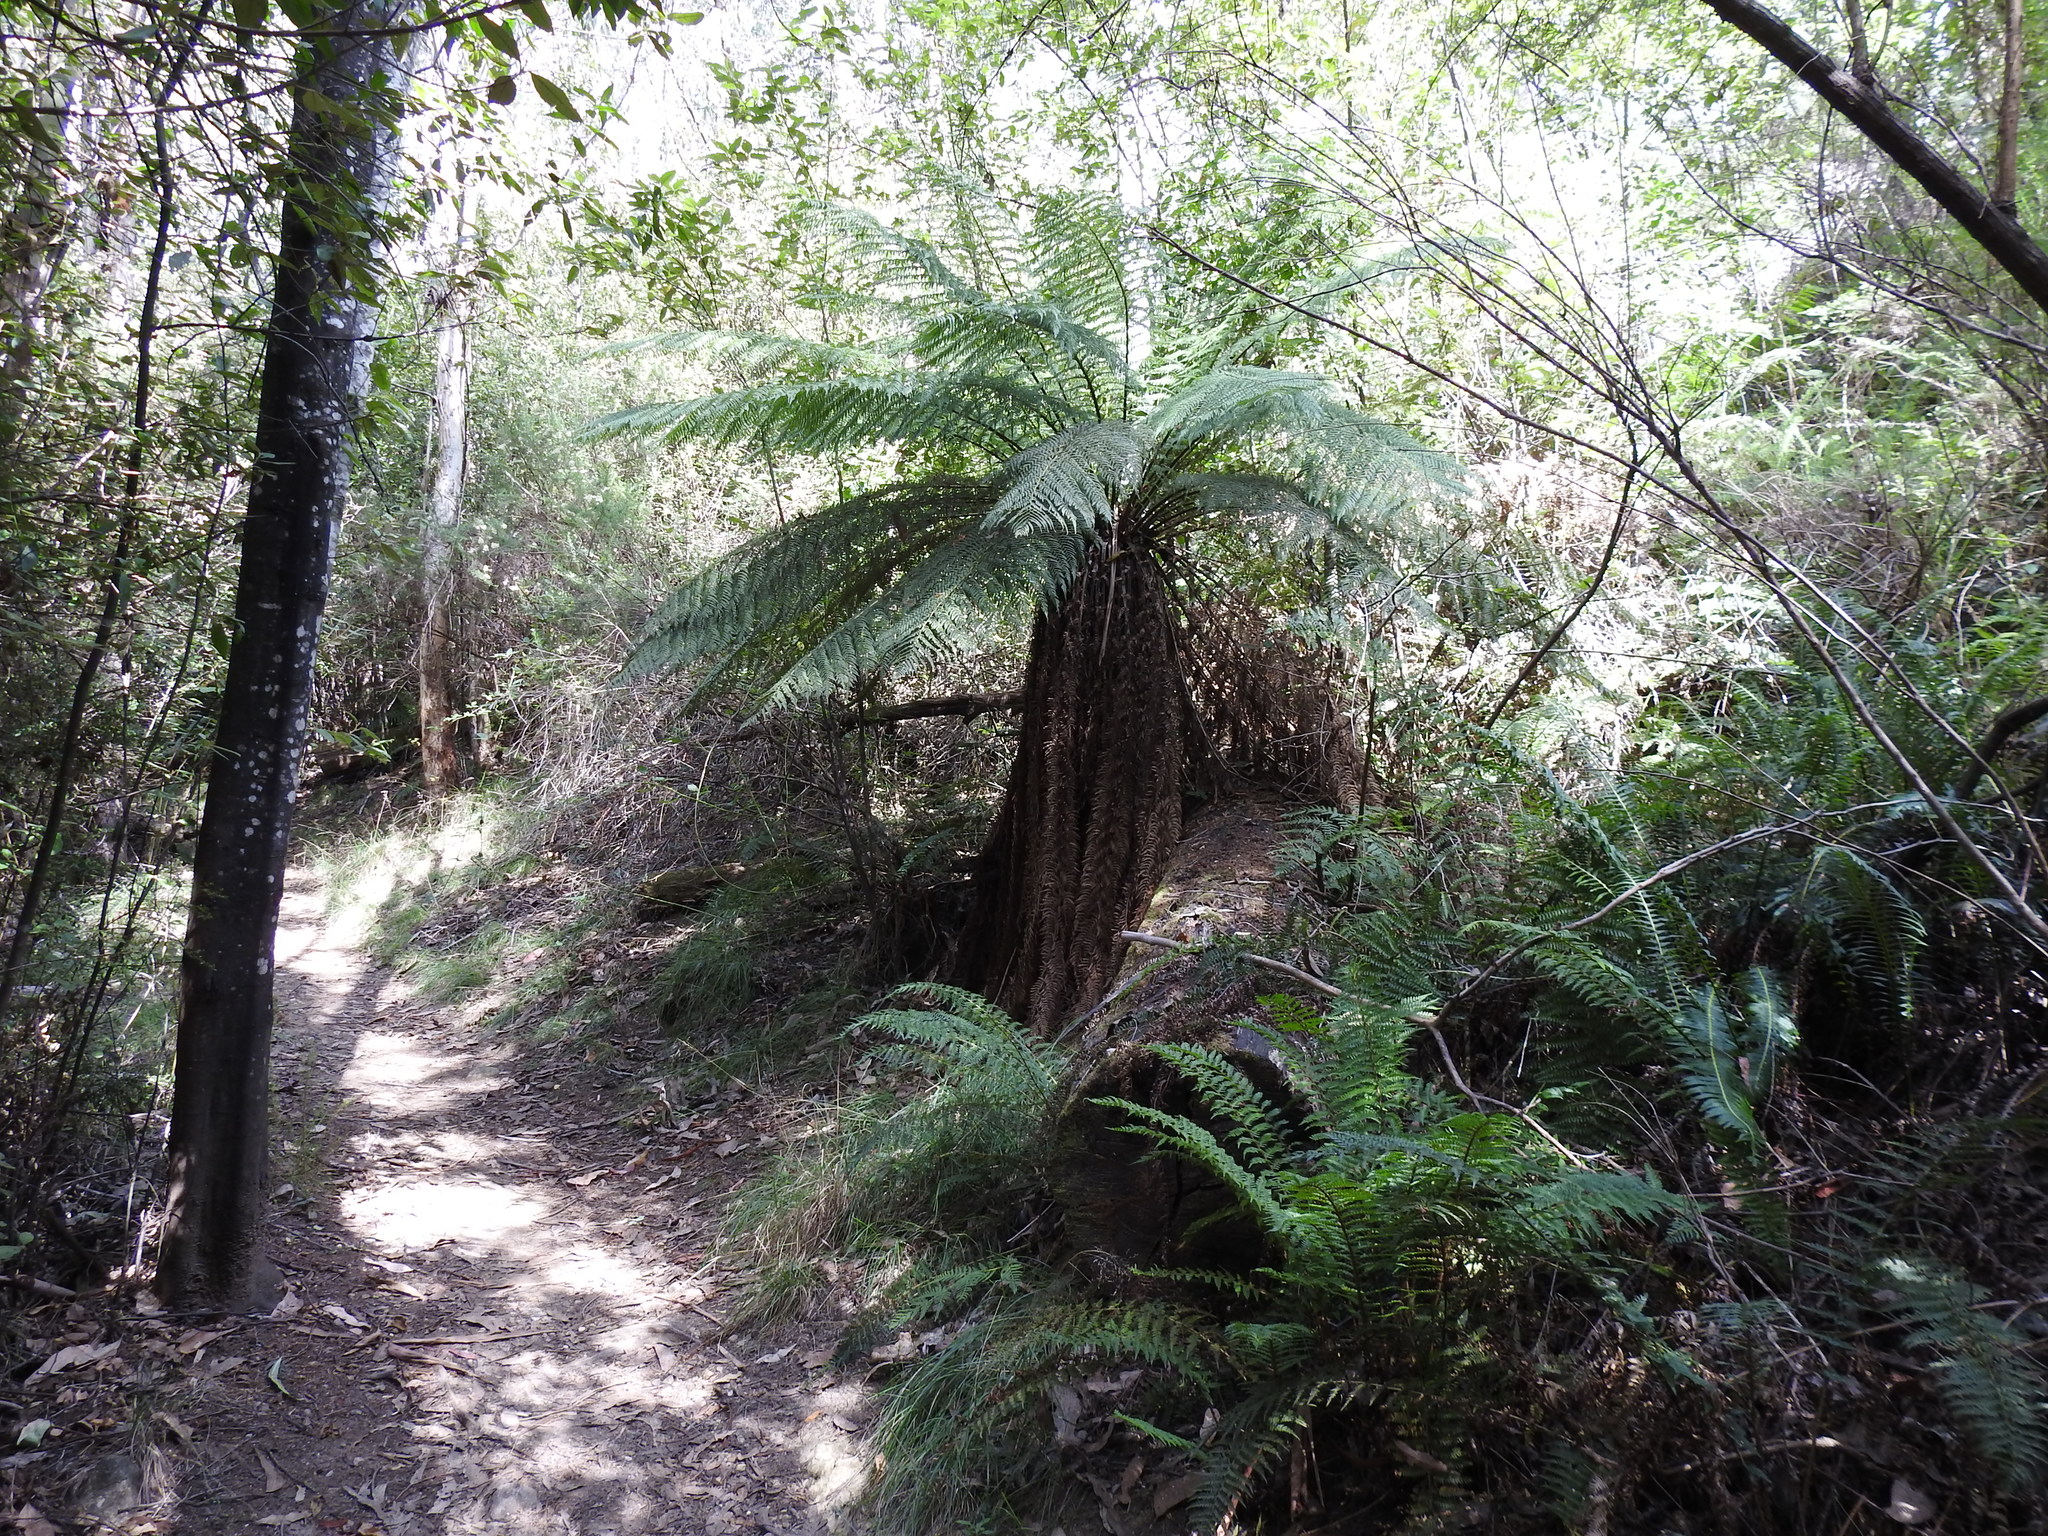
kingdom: Plantae
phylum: Tracheophyta
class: Polypodiopsida
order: Cyatheales
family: Dicksoniaceae
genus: Dicksonia
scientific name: Dicksonia antarctica
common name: Australian treefern
